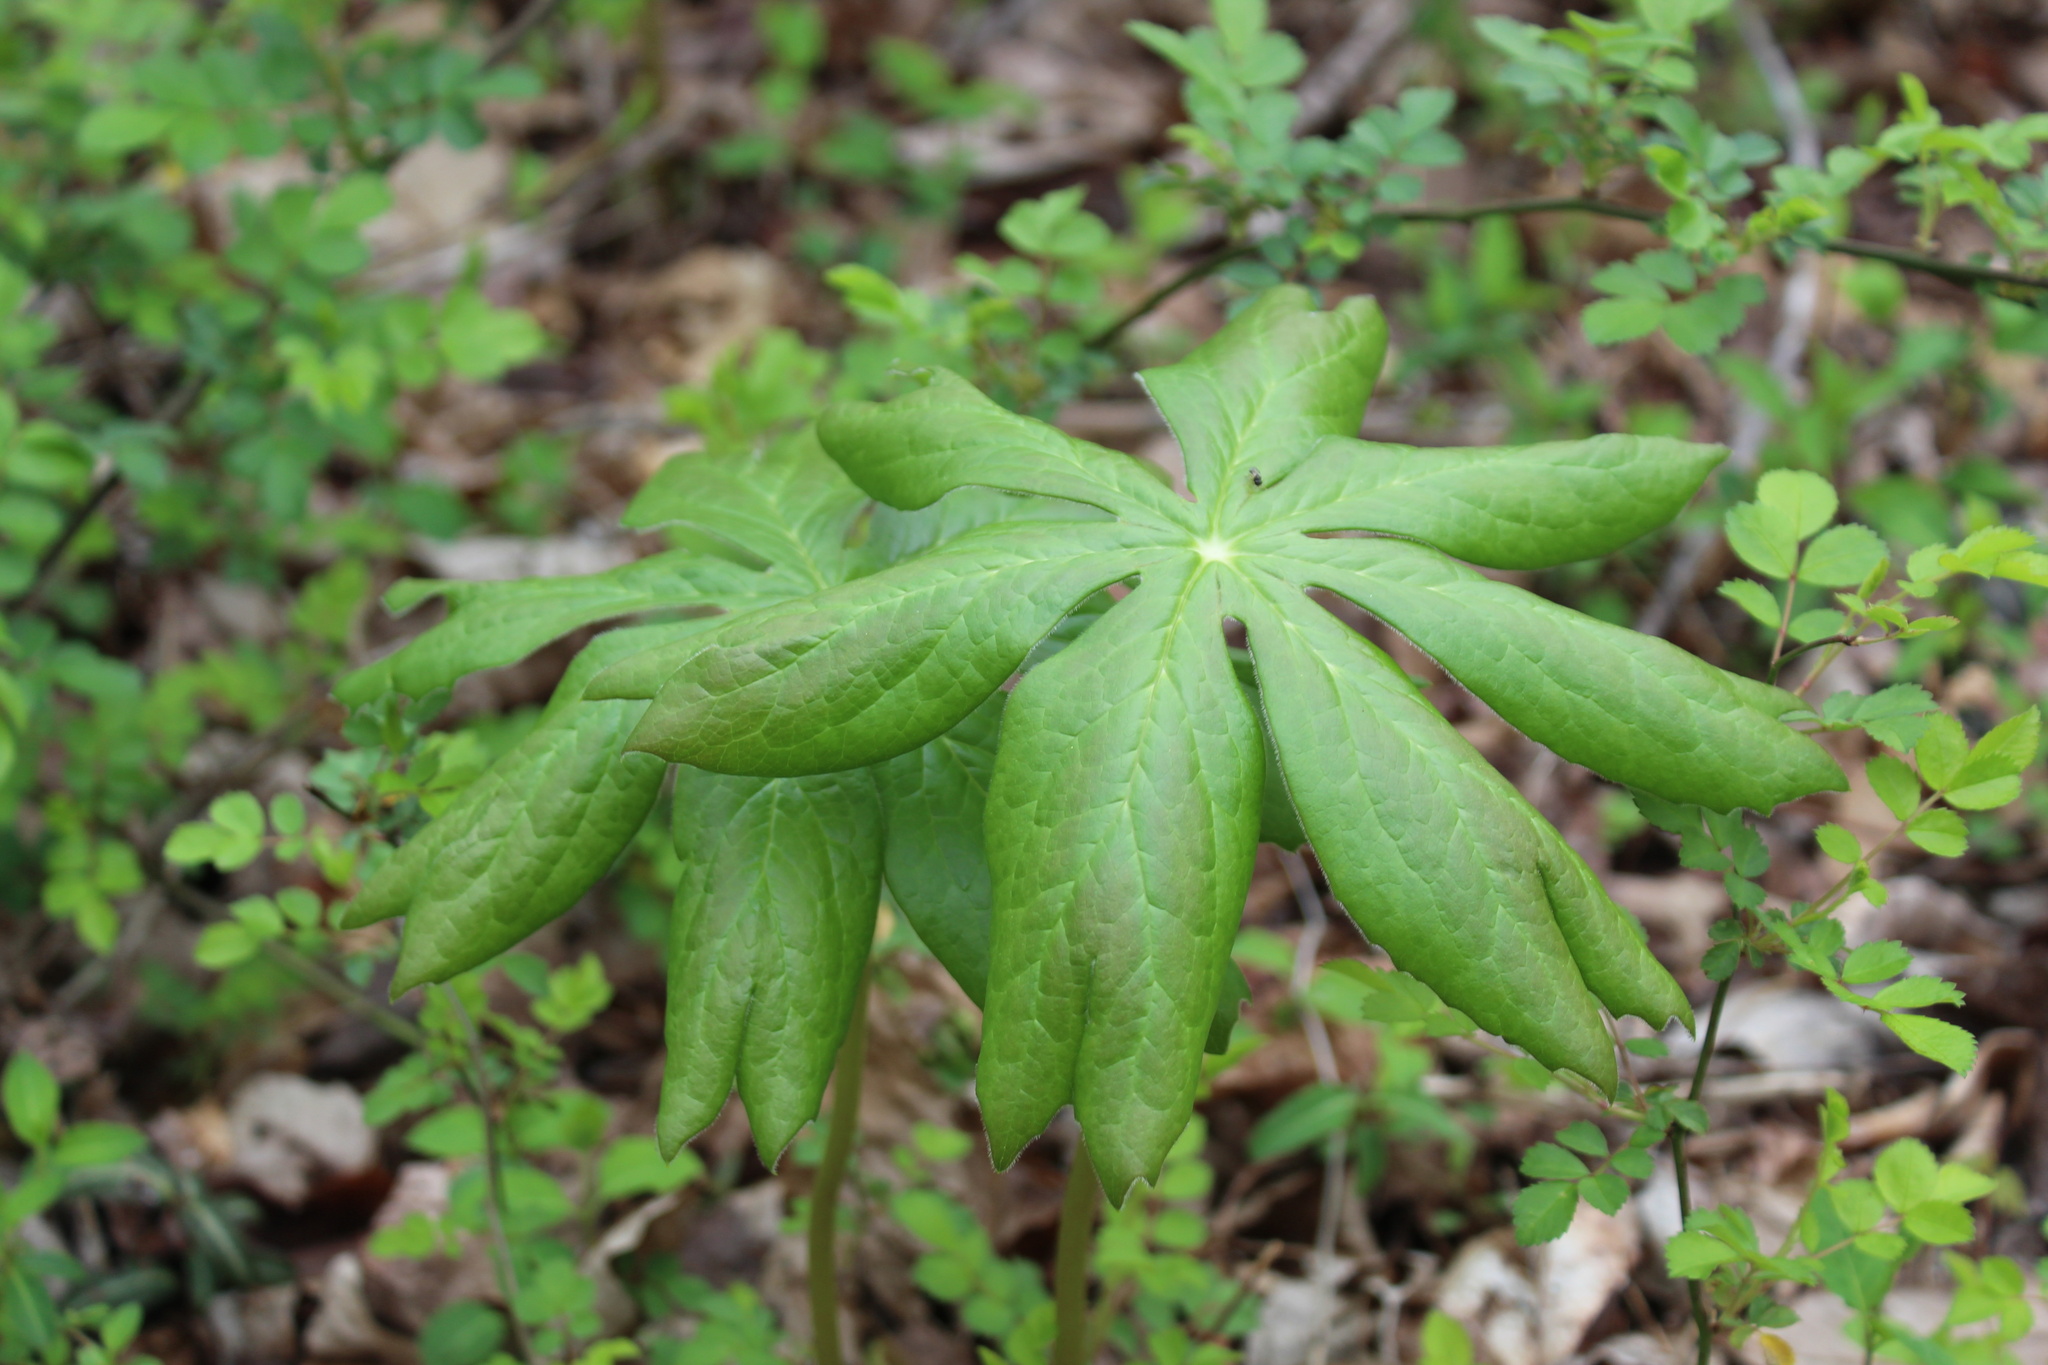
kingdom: Plantae
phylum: Tracheophyta
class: Magnoliopsida
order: Ranunculales
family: Berberidaceae
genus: Podophyllum
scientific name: Podophyllum peltatum
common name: Wild mandrake
